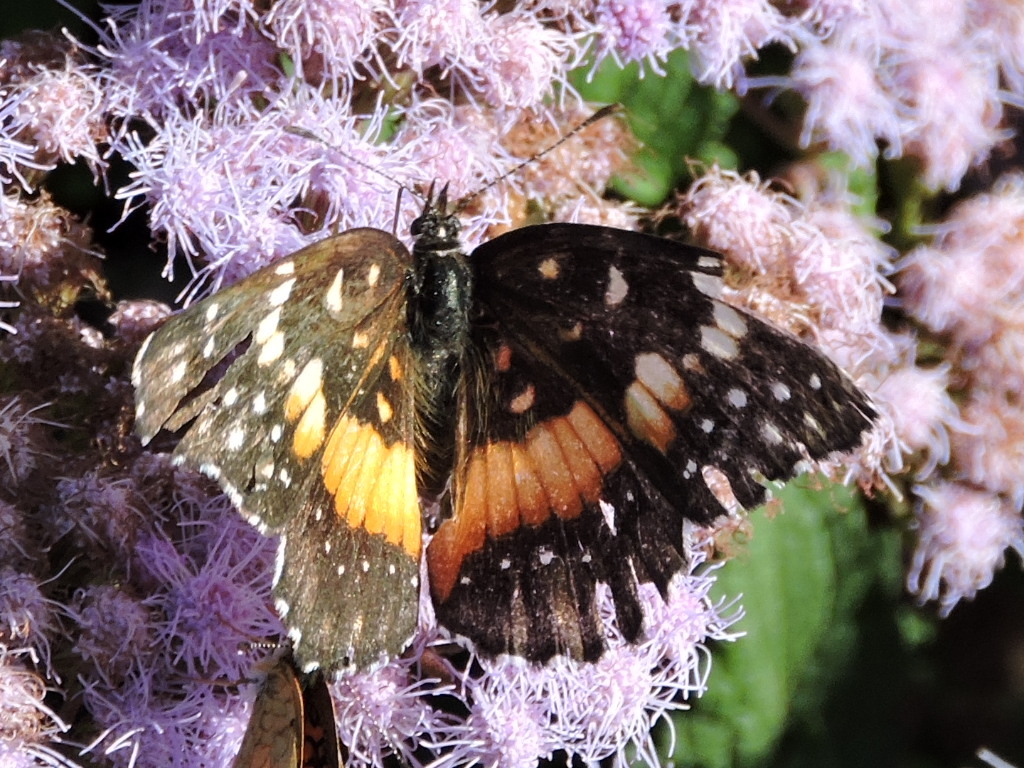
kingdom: Animalia
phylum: Arthropoda
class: Insecta
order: Lepidoptera
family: Nymphalidae
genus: Chlosyne
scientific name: Chlosyne lacinia
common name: Bordered patch
